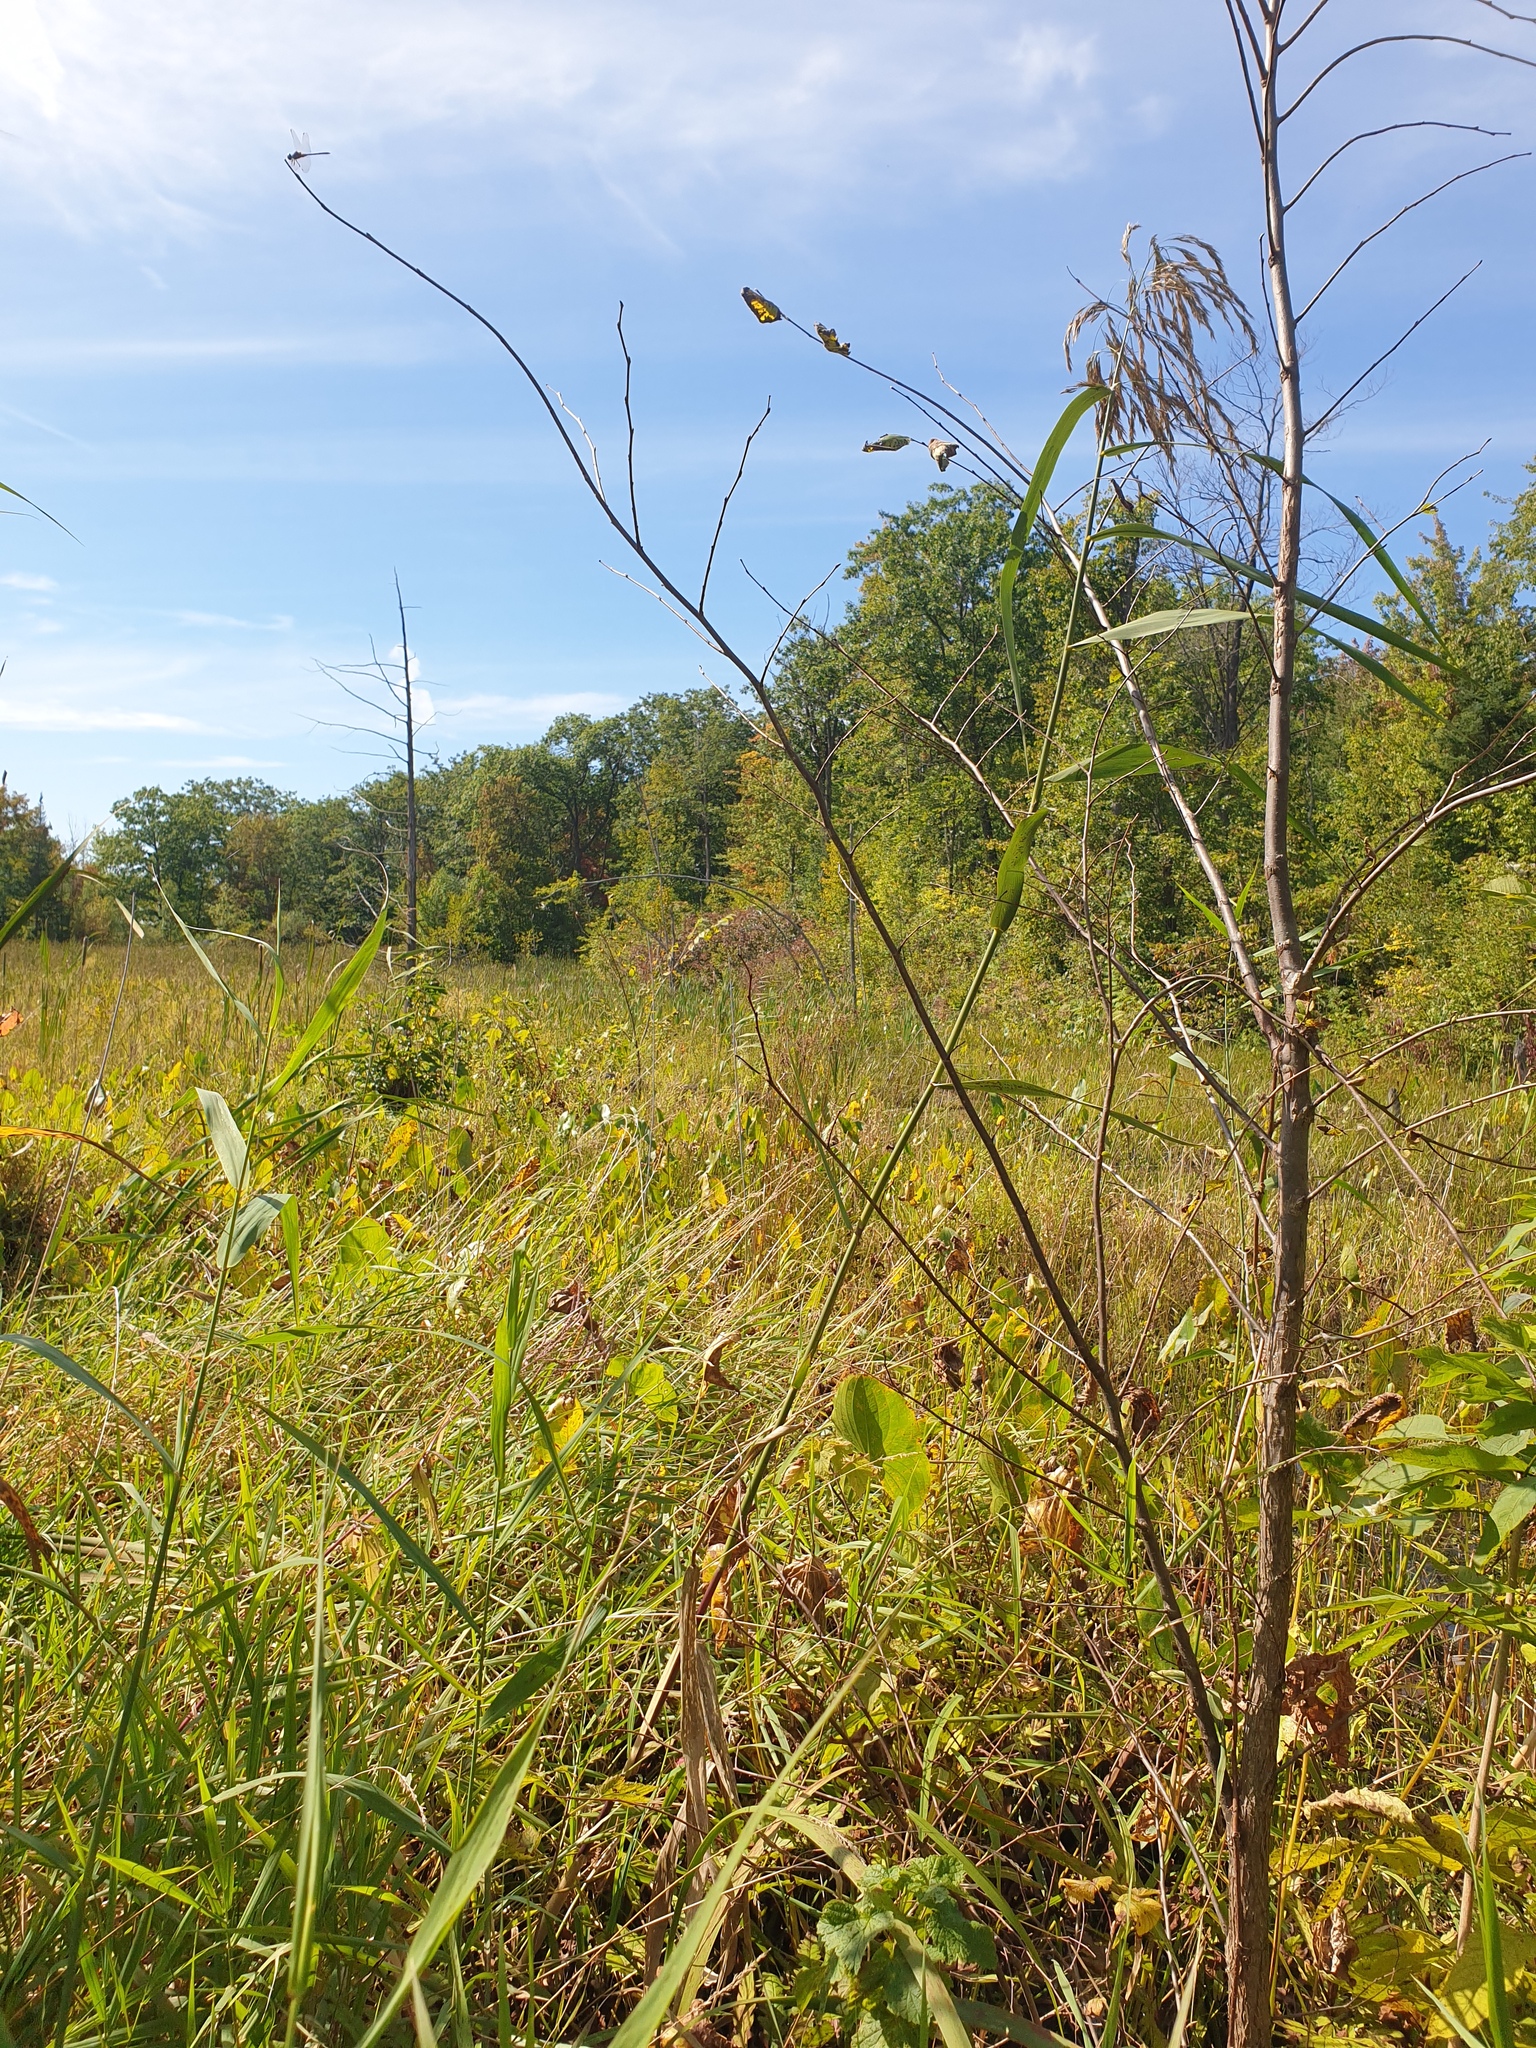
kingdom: Plantae
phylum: Tracheophyta
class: Liliopsida
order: Poales
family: Poaceae
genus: Phragmites
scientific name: Phragmites australis
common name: Common reed
